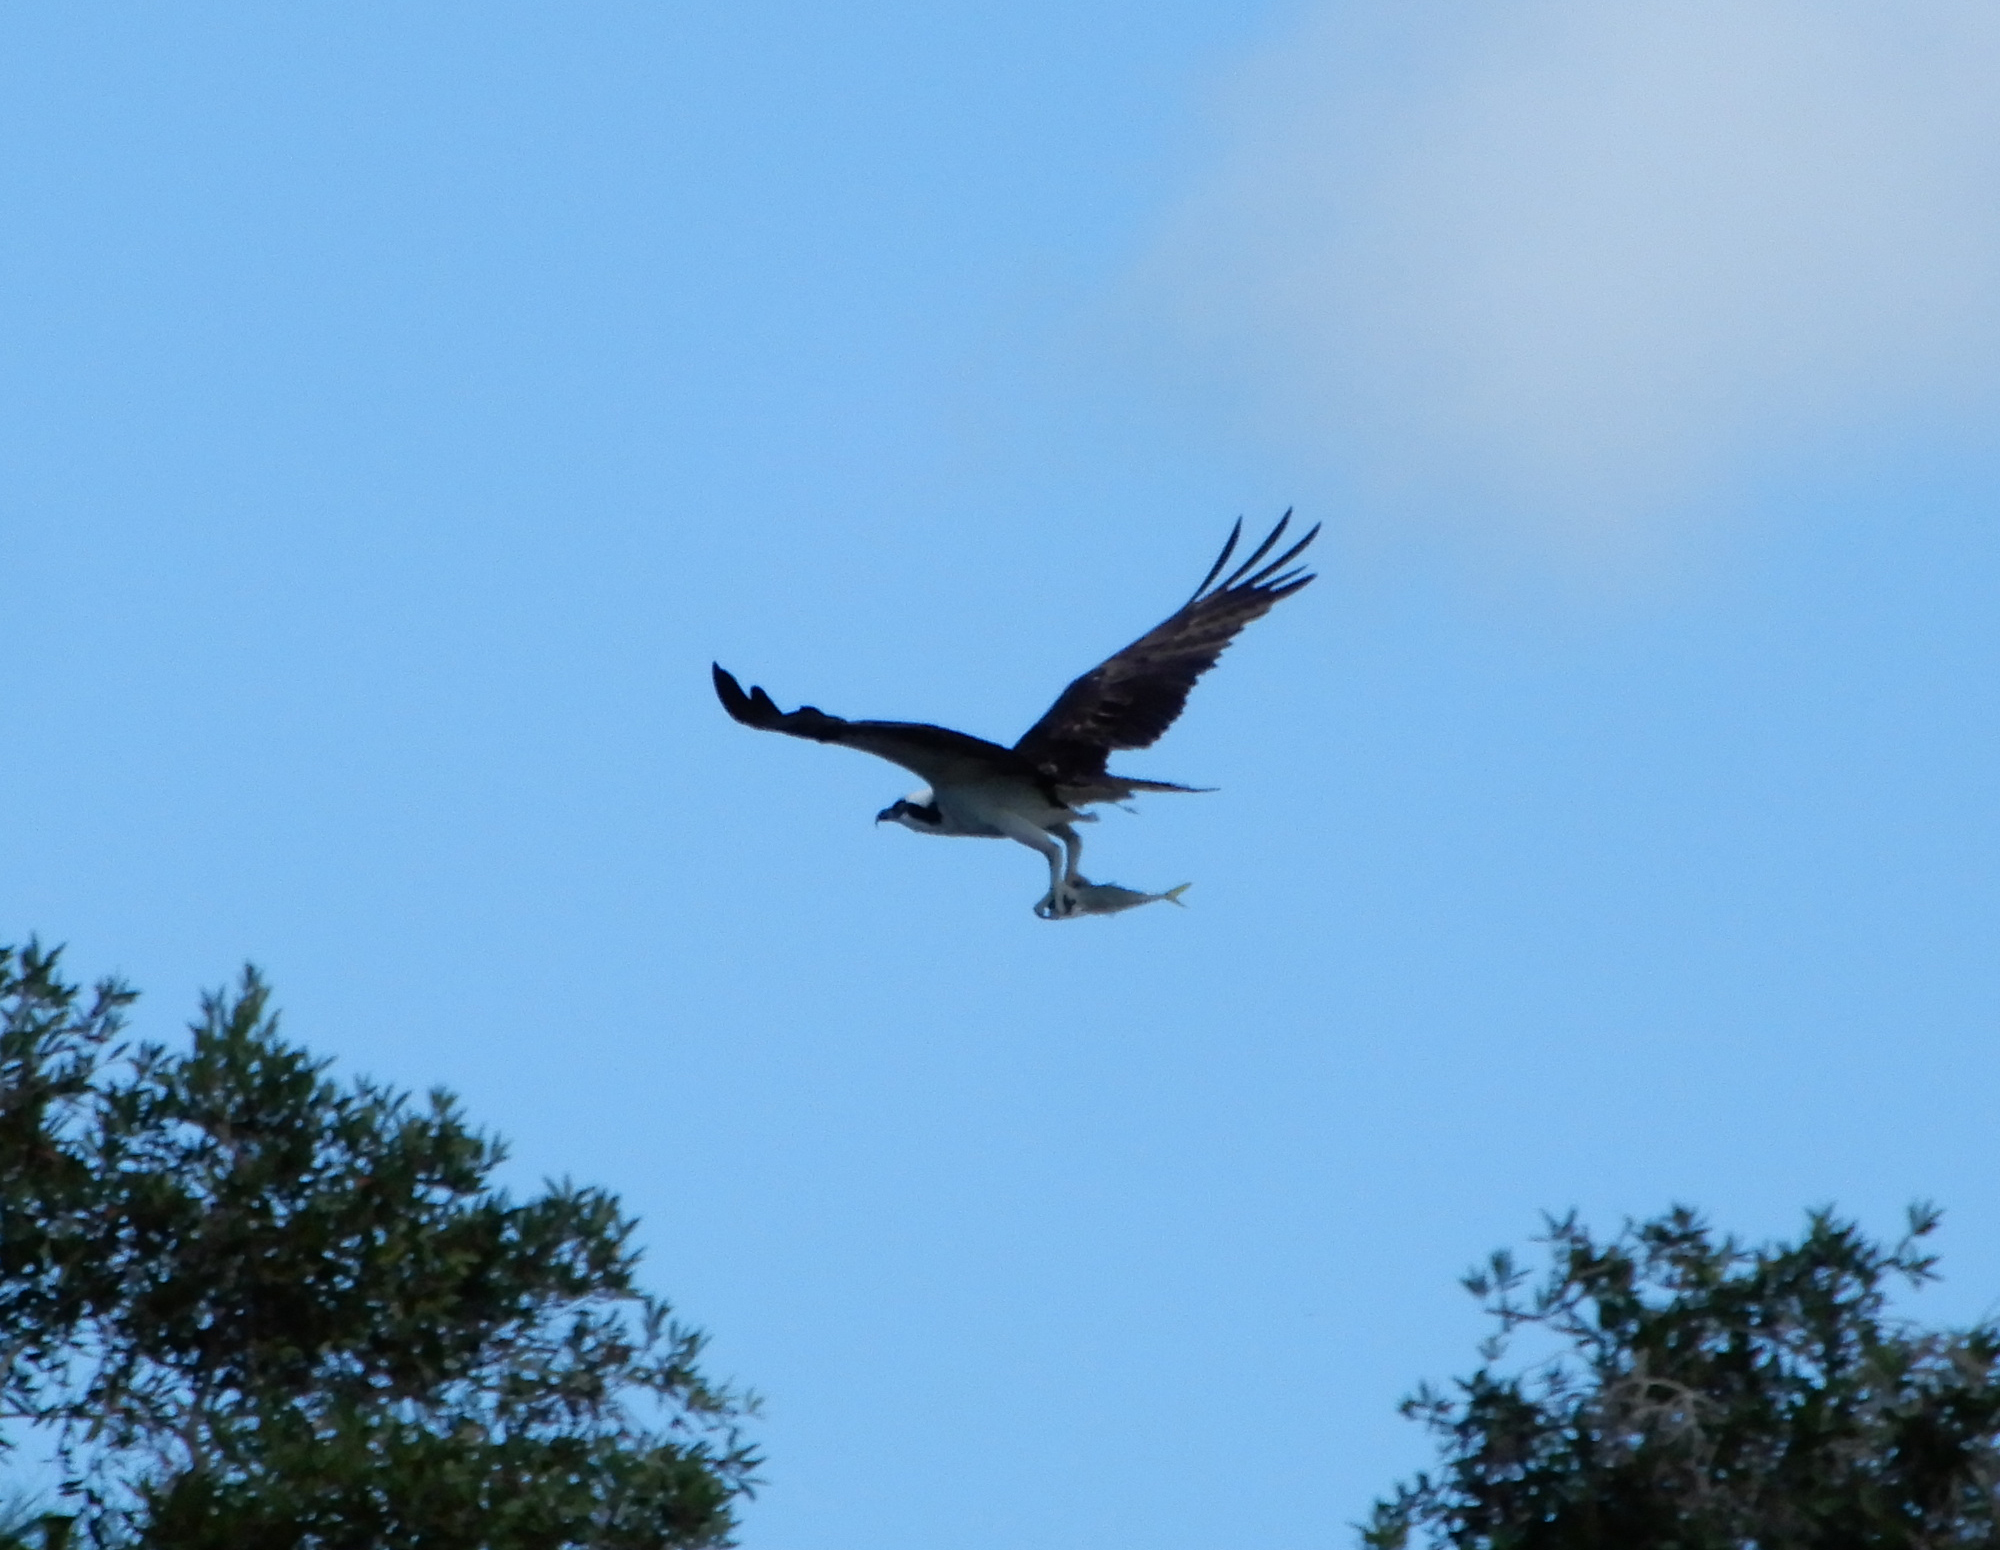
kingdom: Animalia
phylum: Chordata
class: Aves
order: Accipitriformes
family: Pandionidae
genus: Pandion
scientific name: Pandion haliaetus
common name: Osprey
